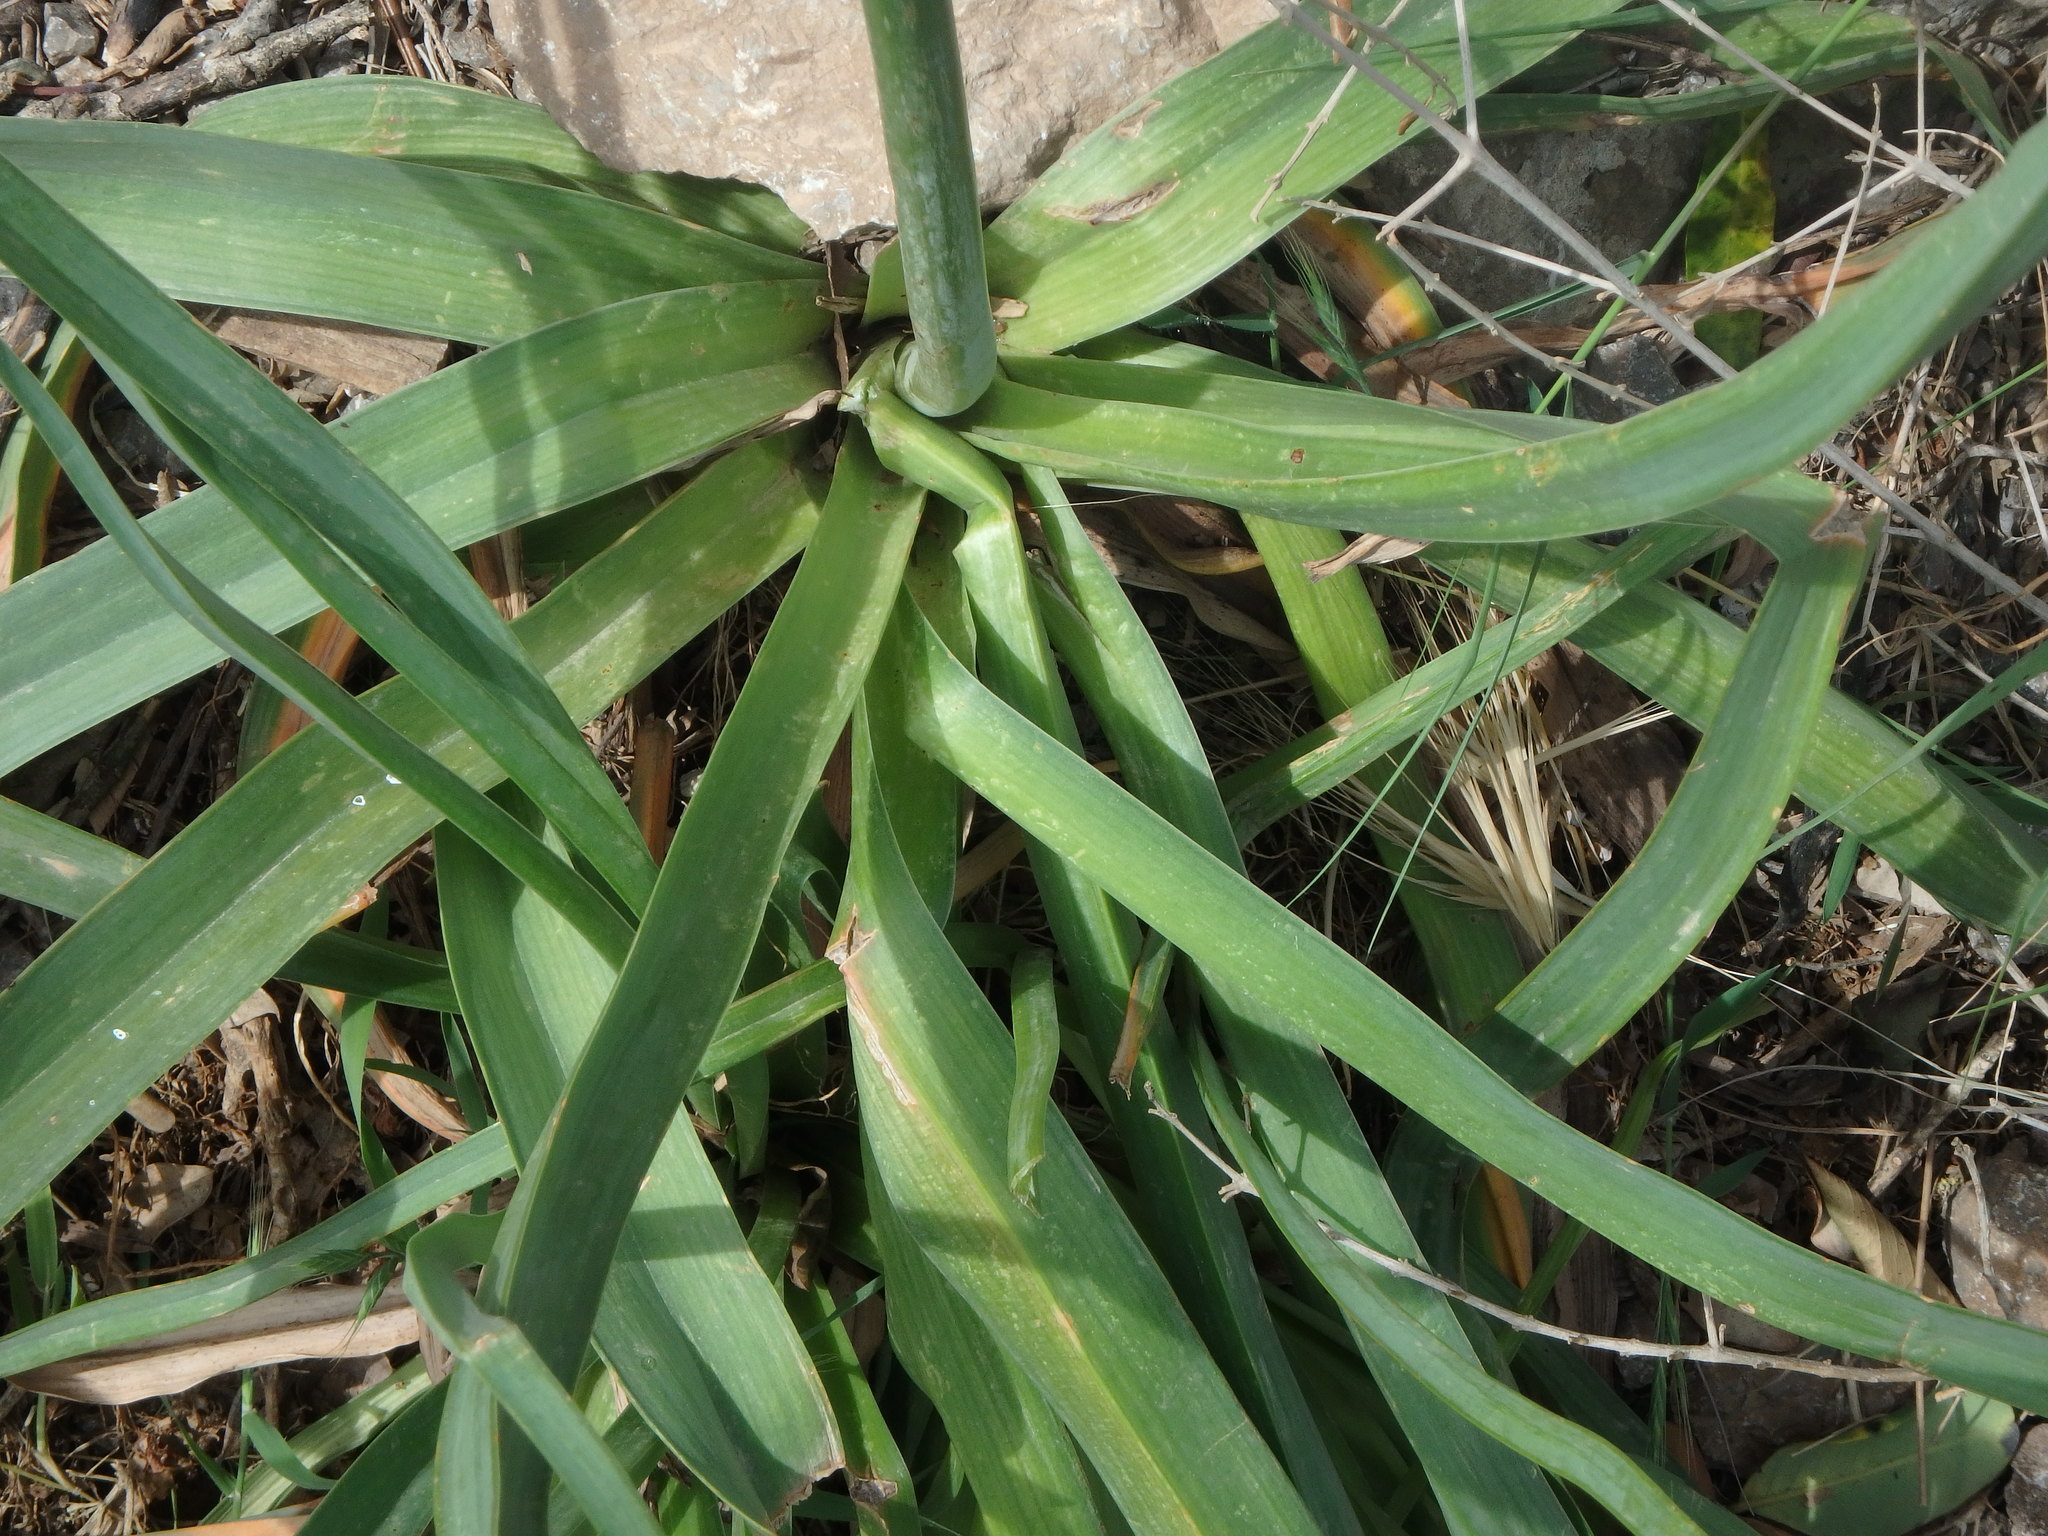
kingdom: Plantae
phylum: Tracheophyta
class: Liliopsida
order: Asparagales
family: Asphodelaceae
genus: Asphodelus
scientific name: Asphodelus aestivus
